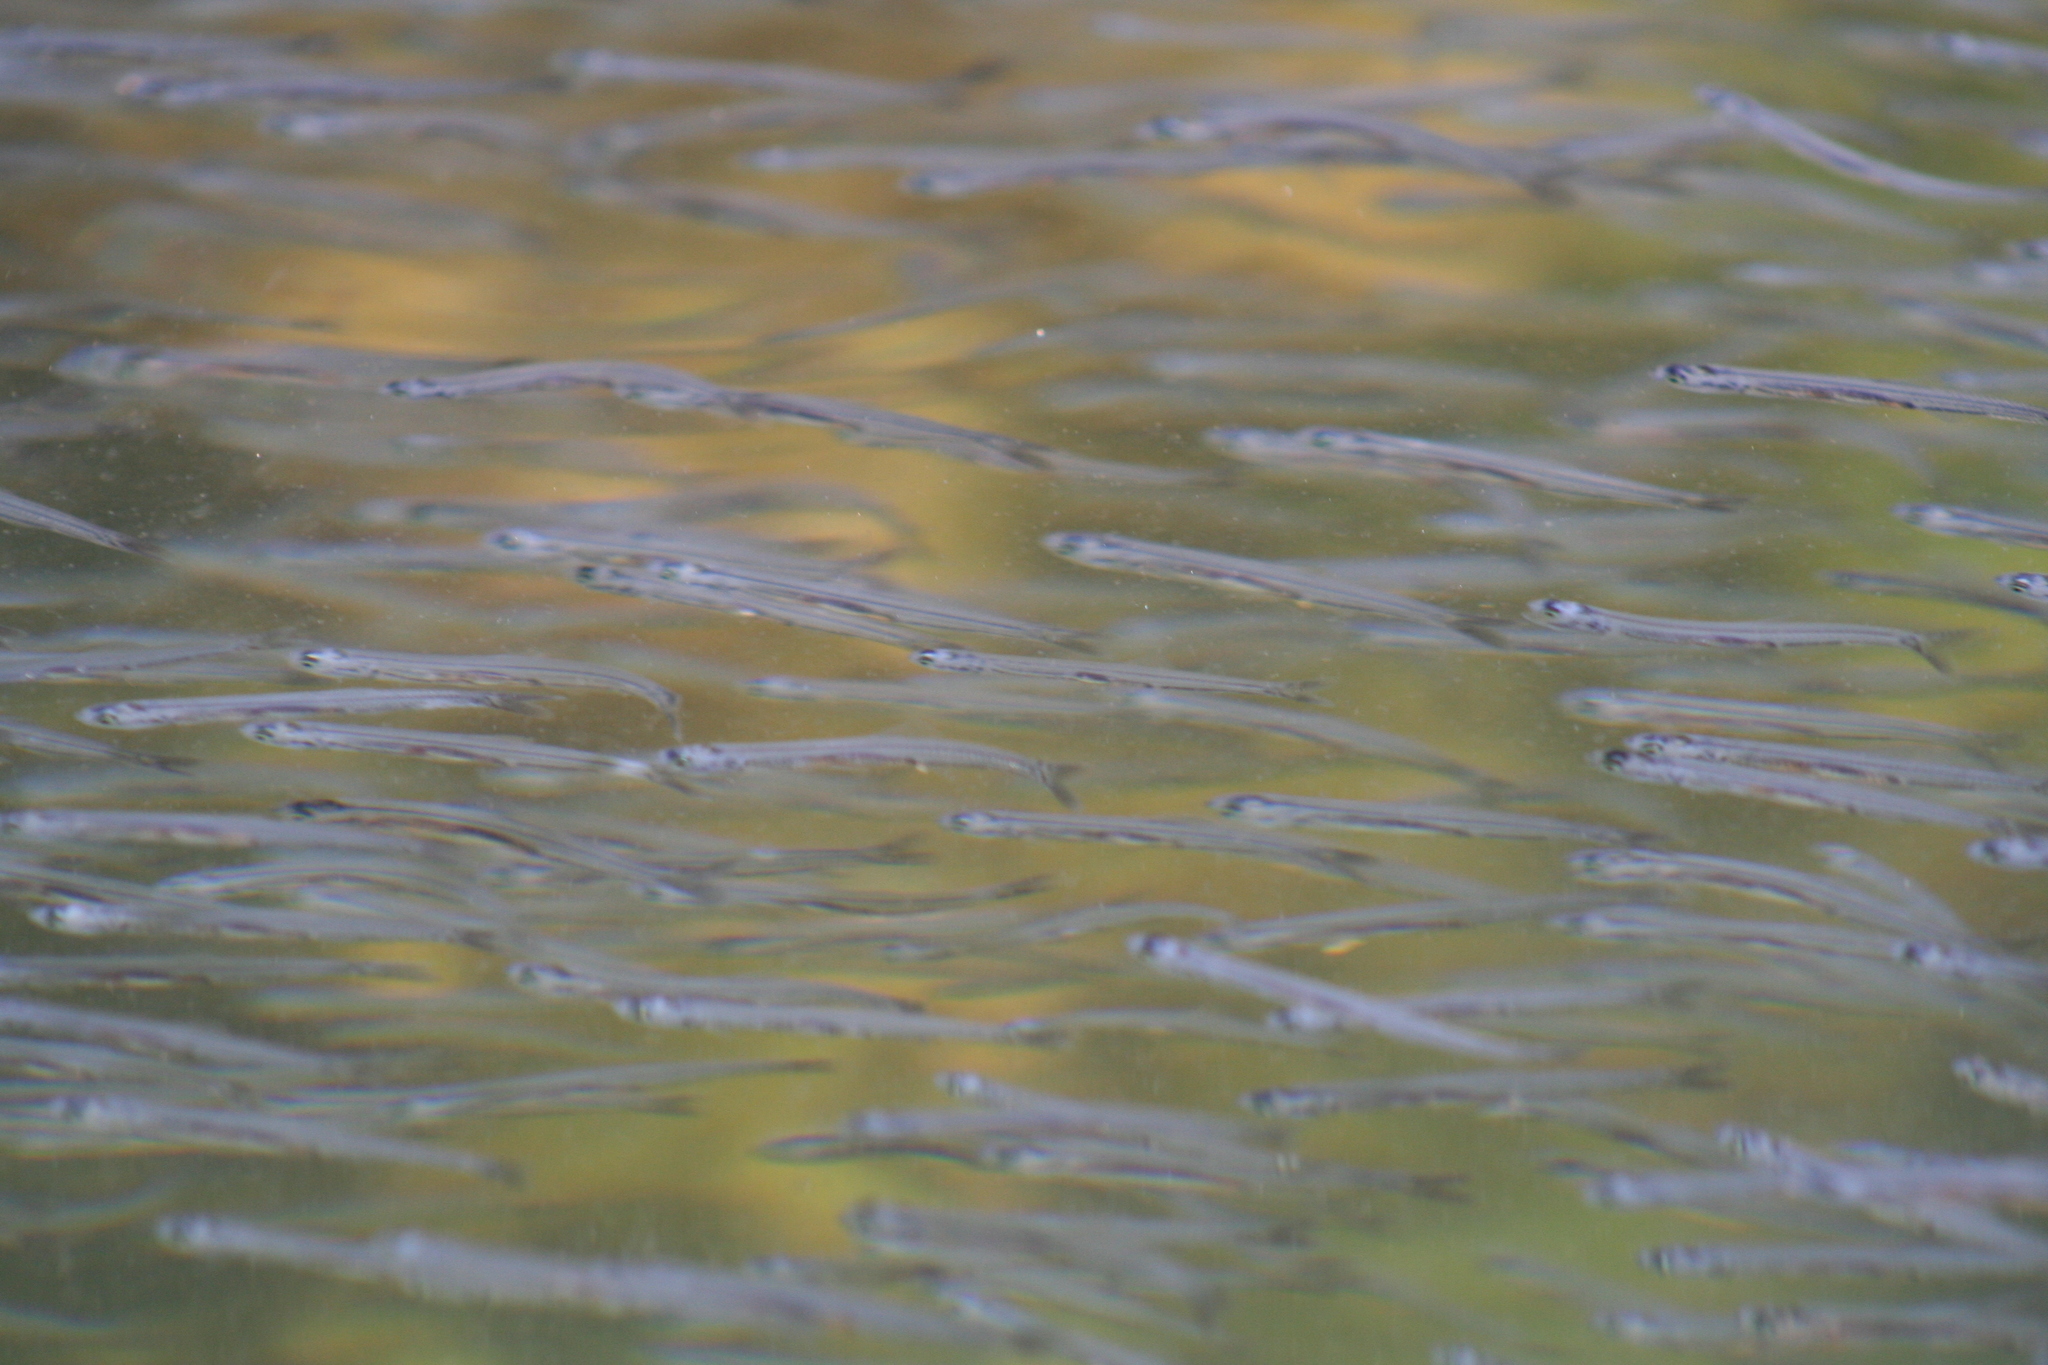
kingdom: Animalia
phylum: Chordata
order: Clupeiformes
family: Engraulidae
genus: Engraulis
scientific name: Engraulis mordax
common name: Northern anchovy
